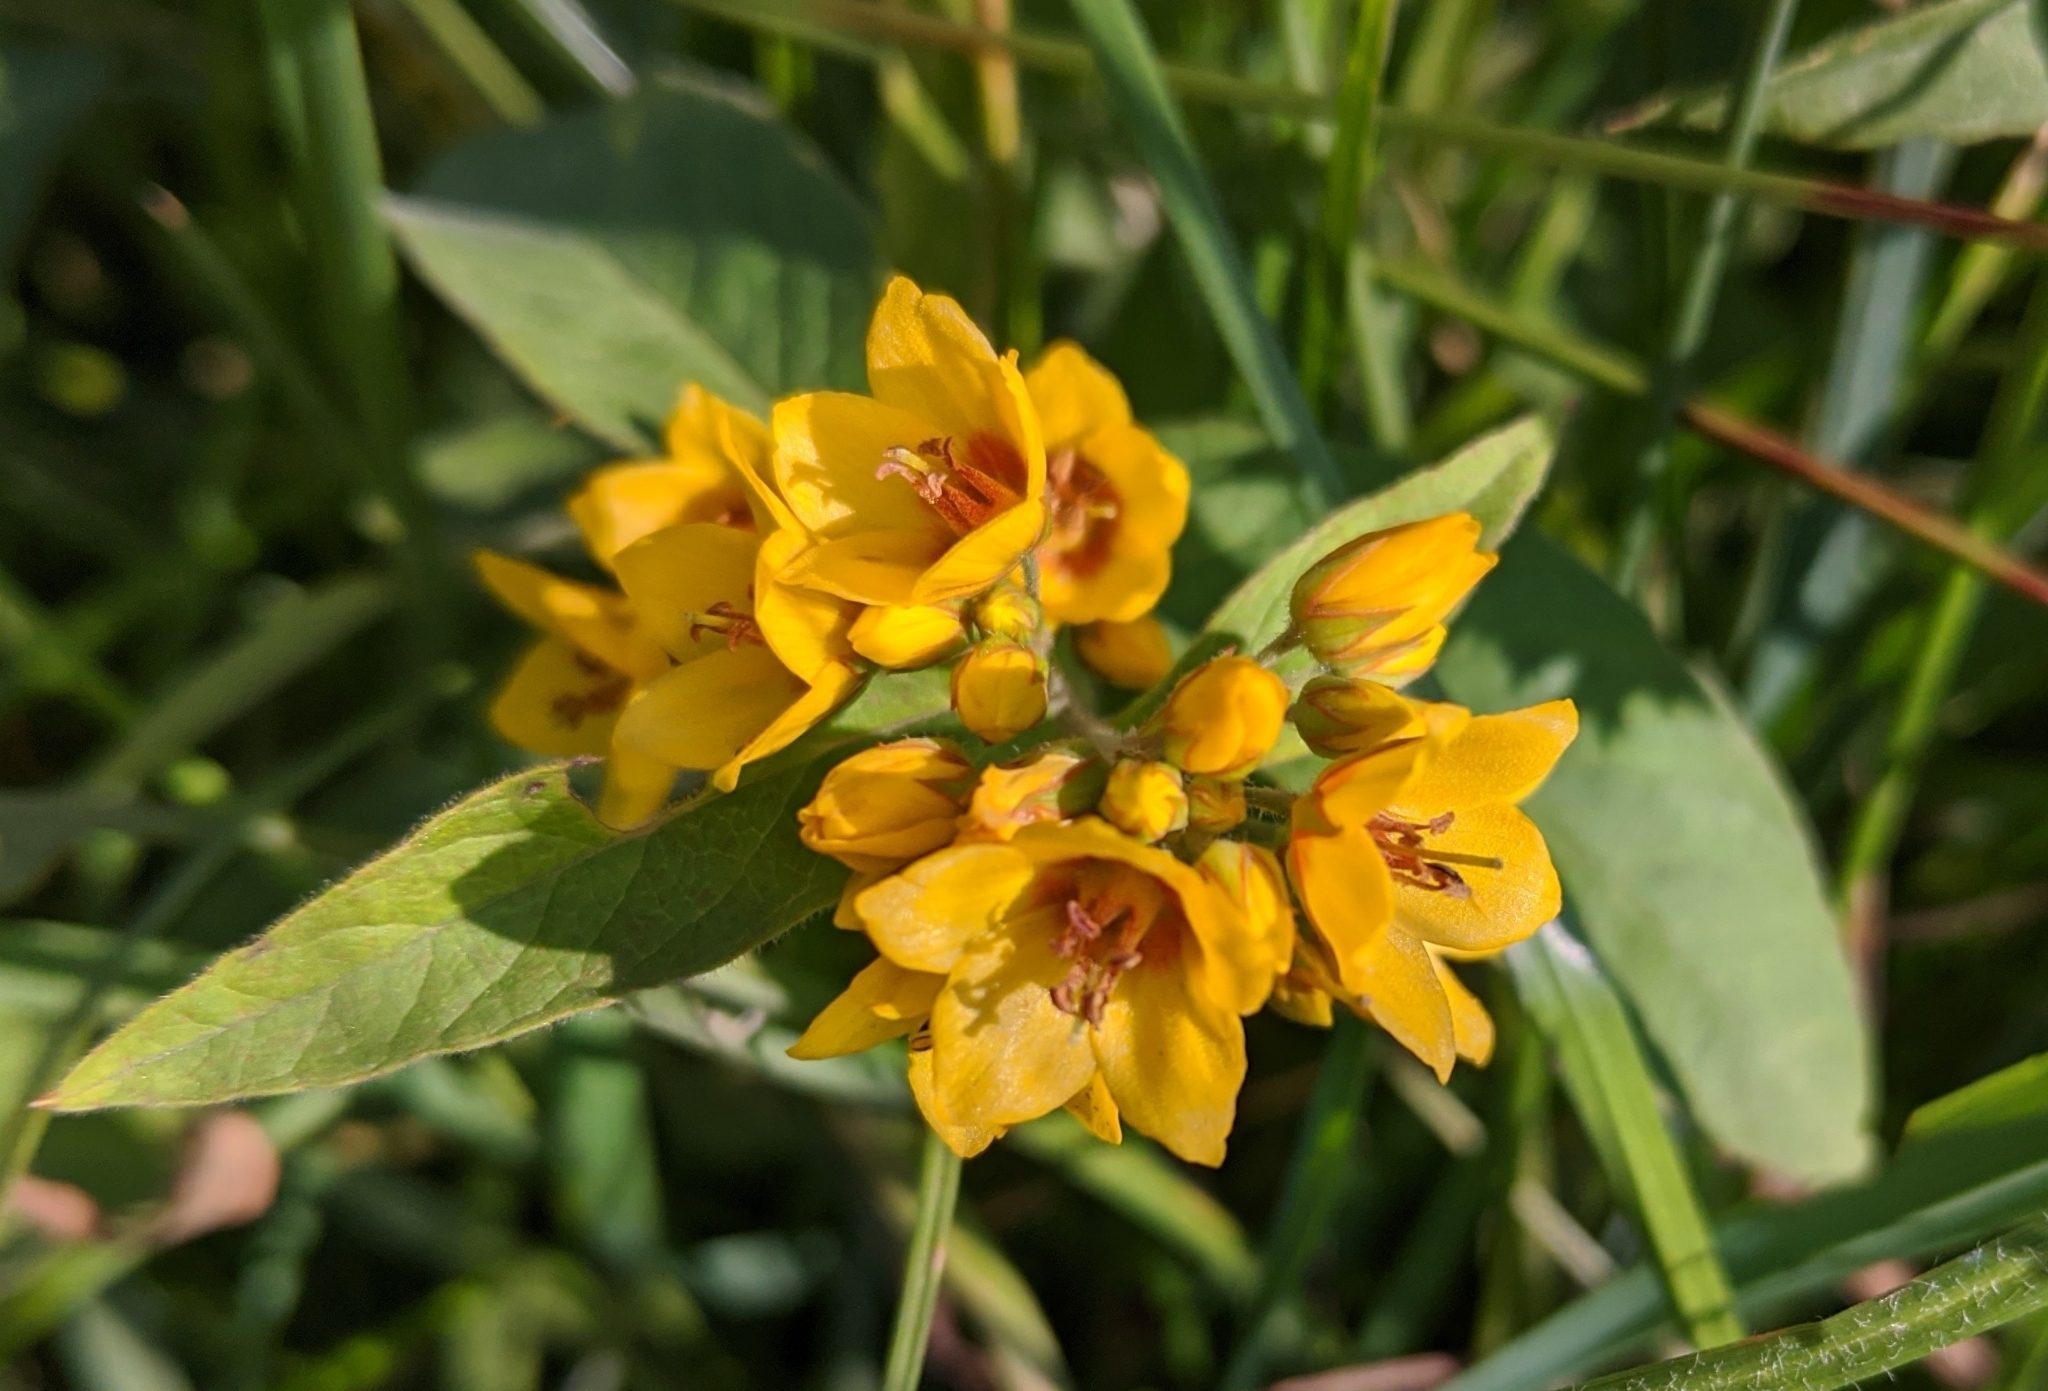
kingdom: Plantae
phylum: Tracheophyta
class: Magnoliopsida
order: Ericales
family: Primulaceae
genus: Lysimachia
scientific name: Lysimachia vulgaris
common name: Yellow loosestrife
